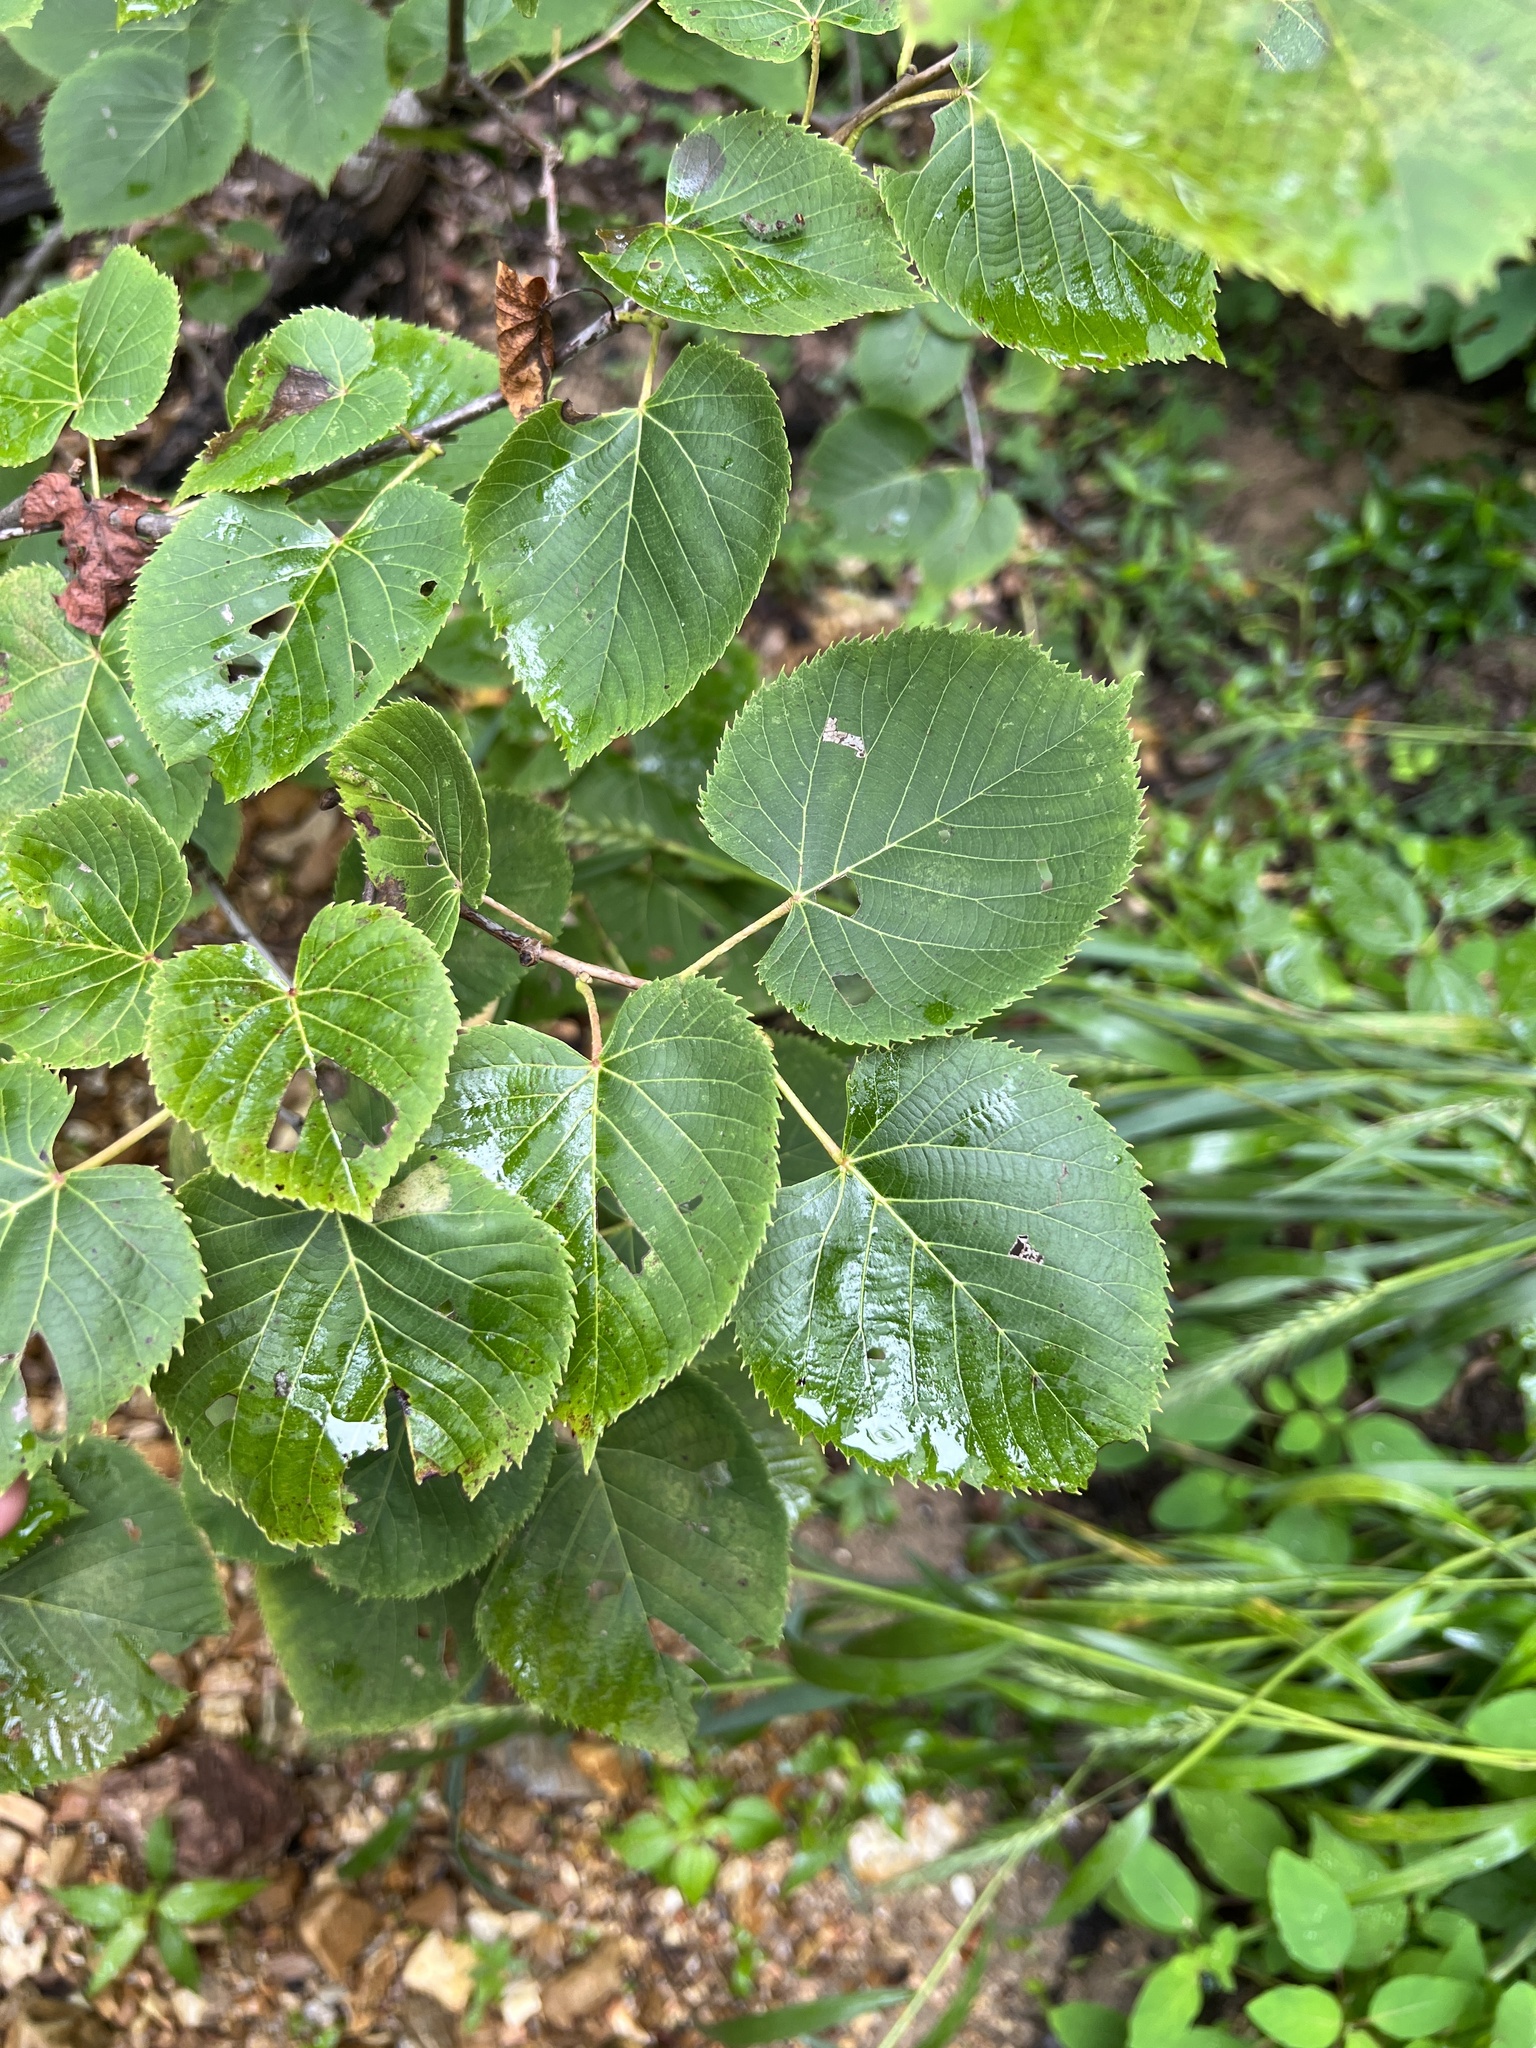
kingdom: Plantae
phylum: Tracheophyta
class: Magnoliopsida
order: Malvales
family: Malvaceae
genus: Tilia
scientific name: Tilia americana
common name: Basswood
